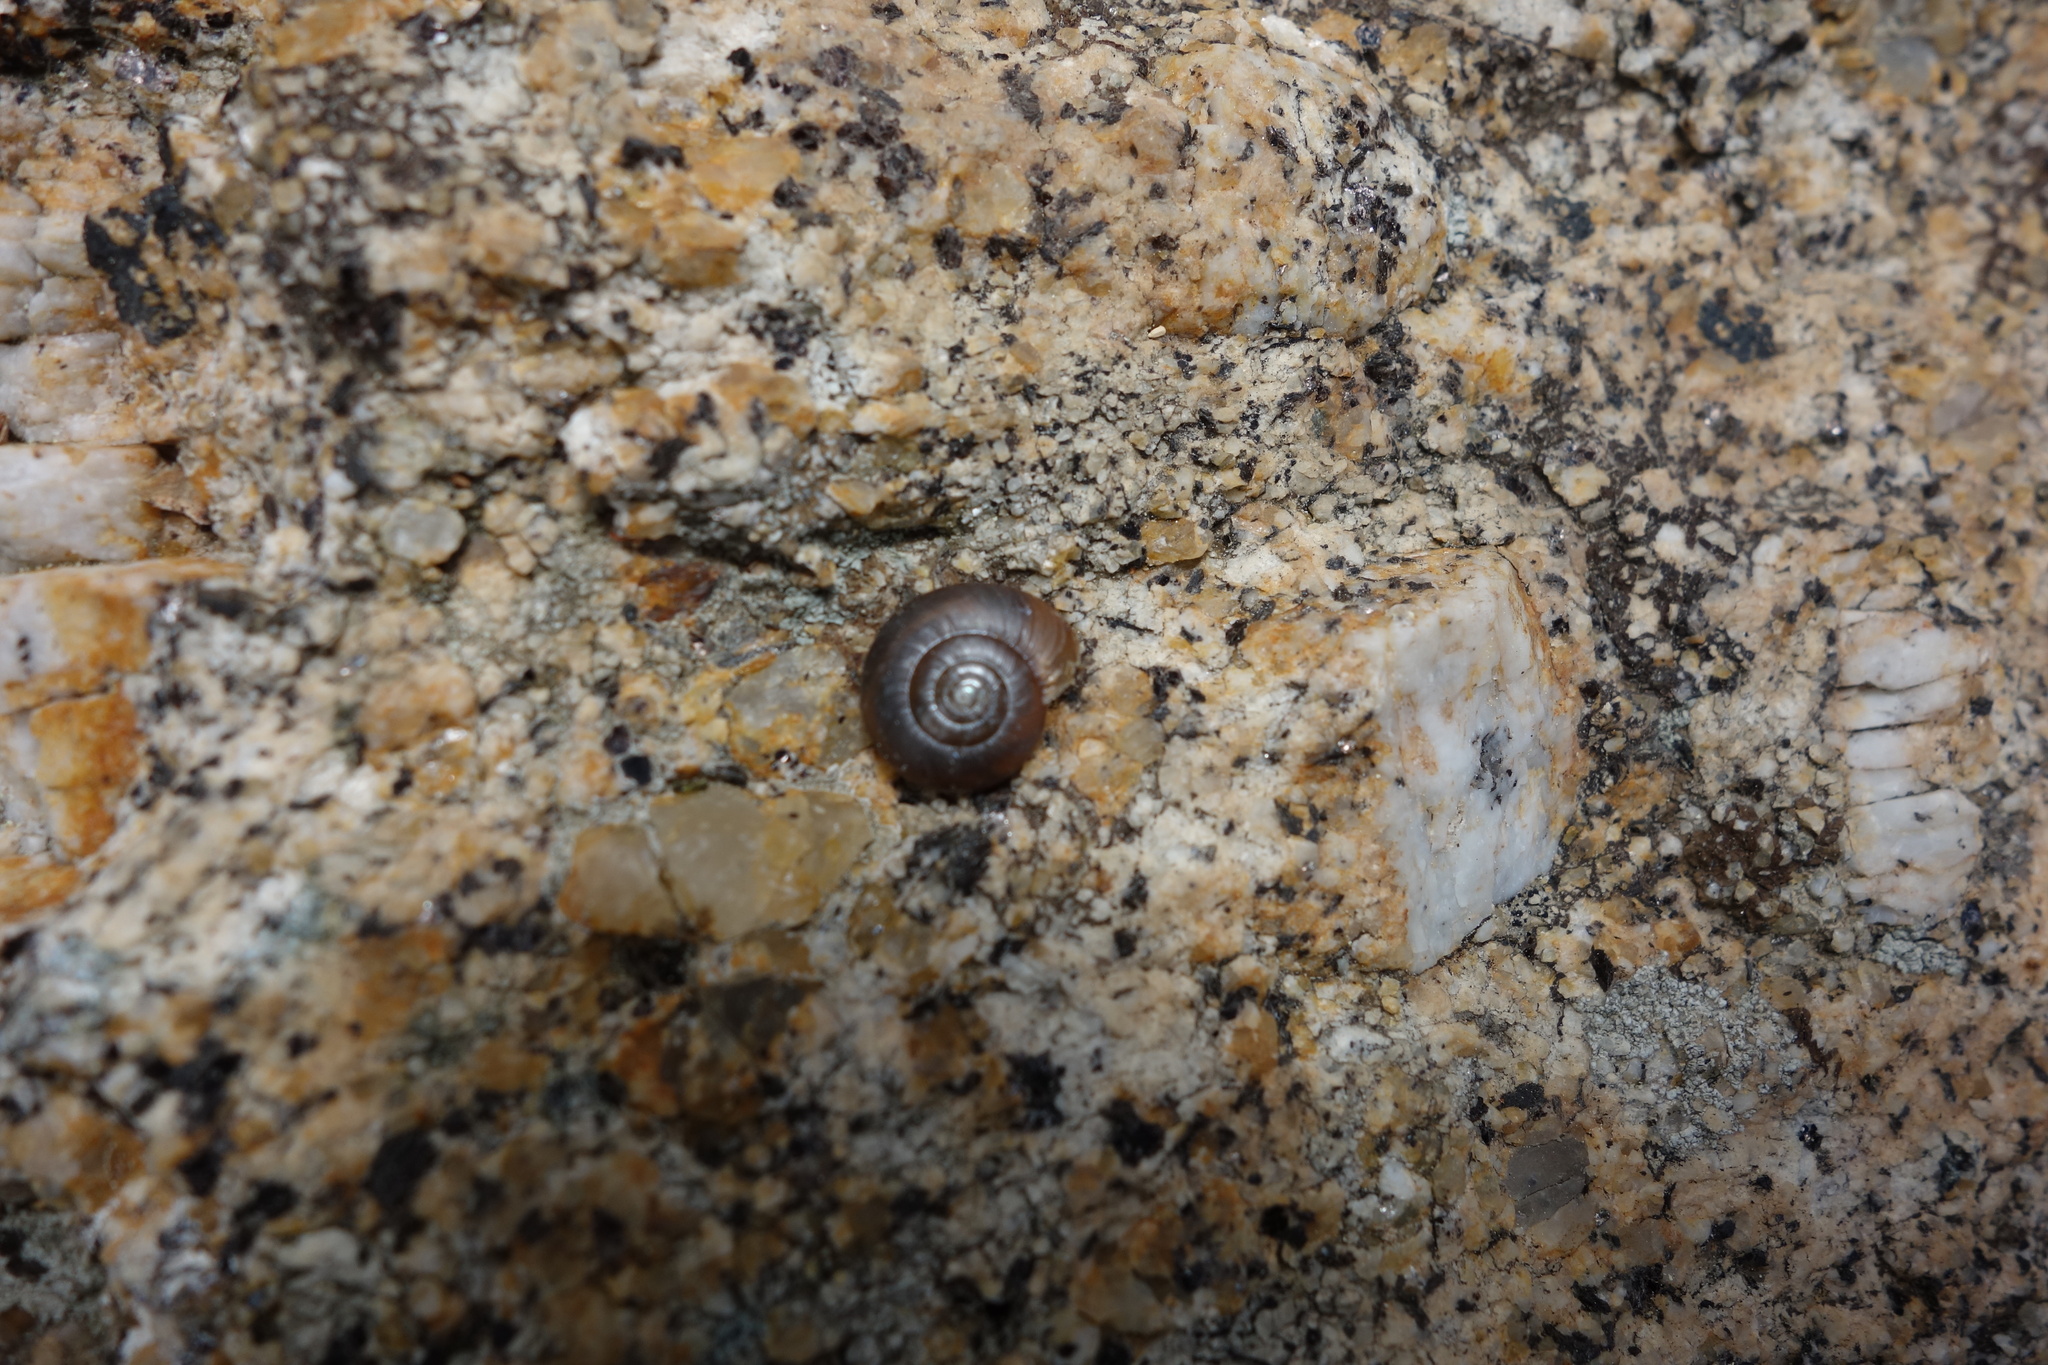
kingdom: Animalia
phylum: Mollusca
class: Gastropoda
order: Stylommatophora
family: Oxychilidae
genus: Oxychilus
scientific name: Oxychilus oglasicola
